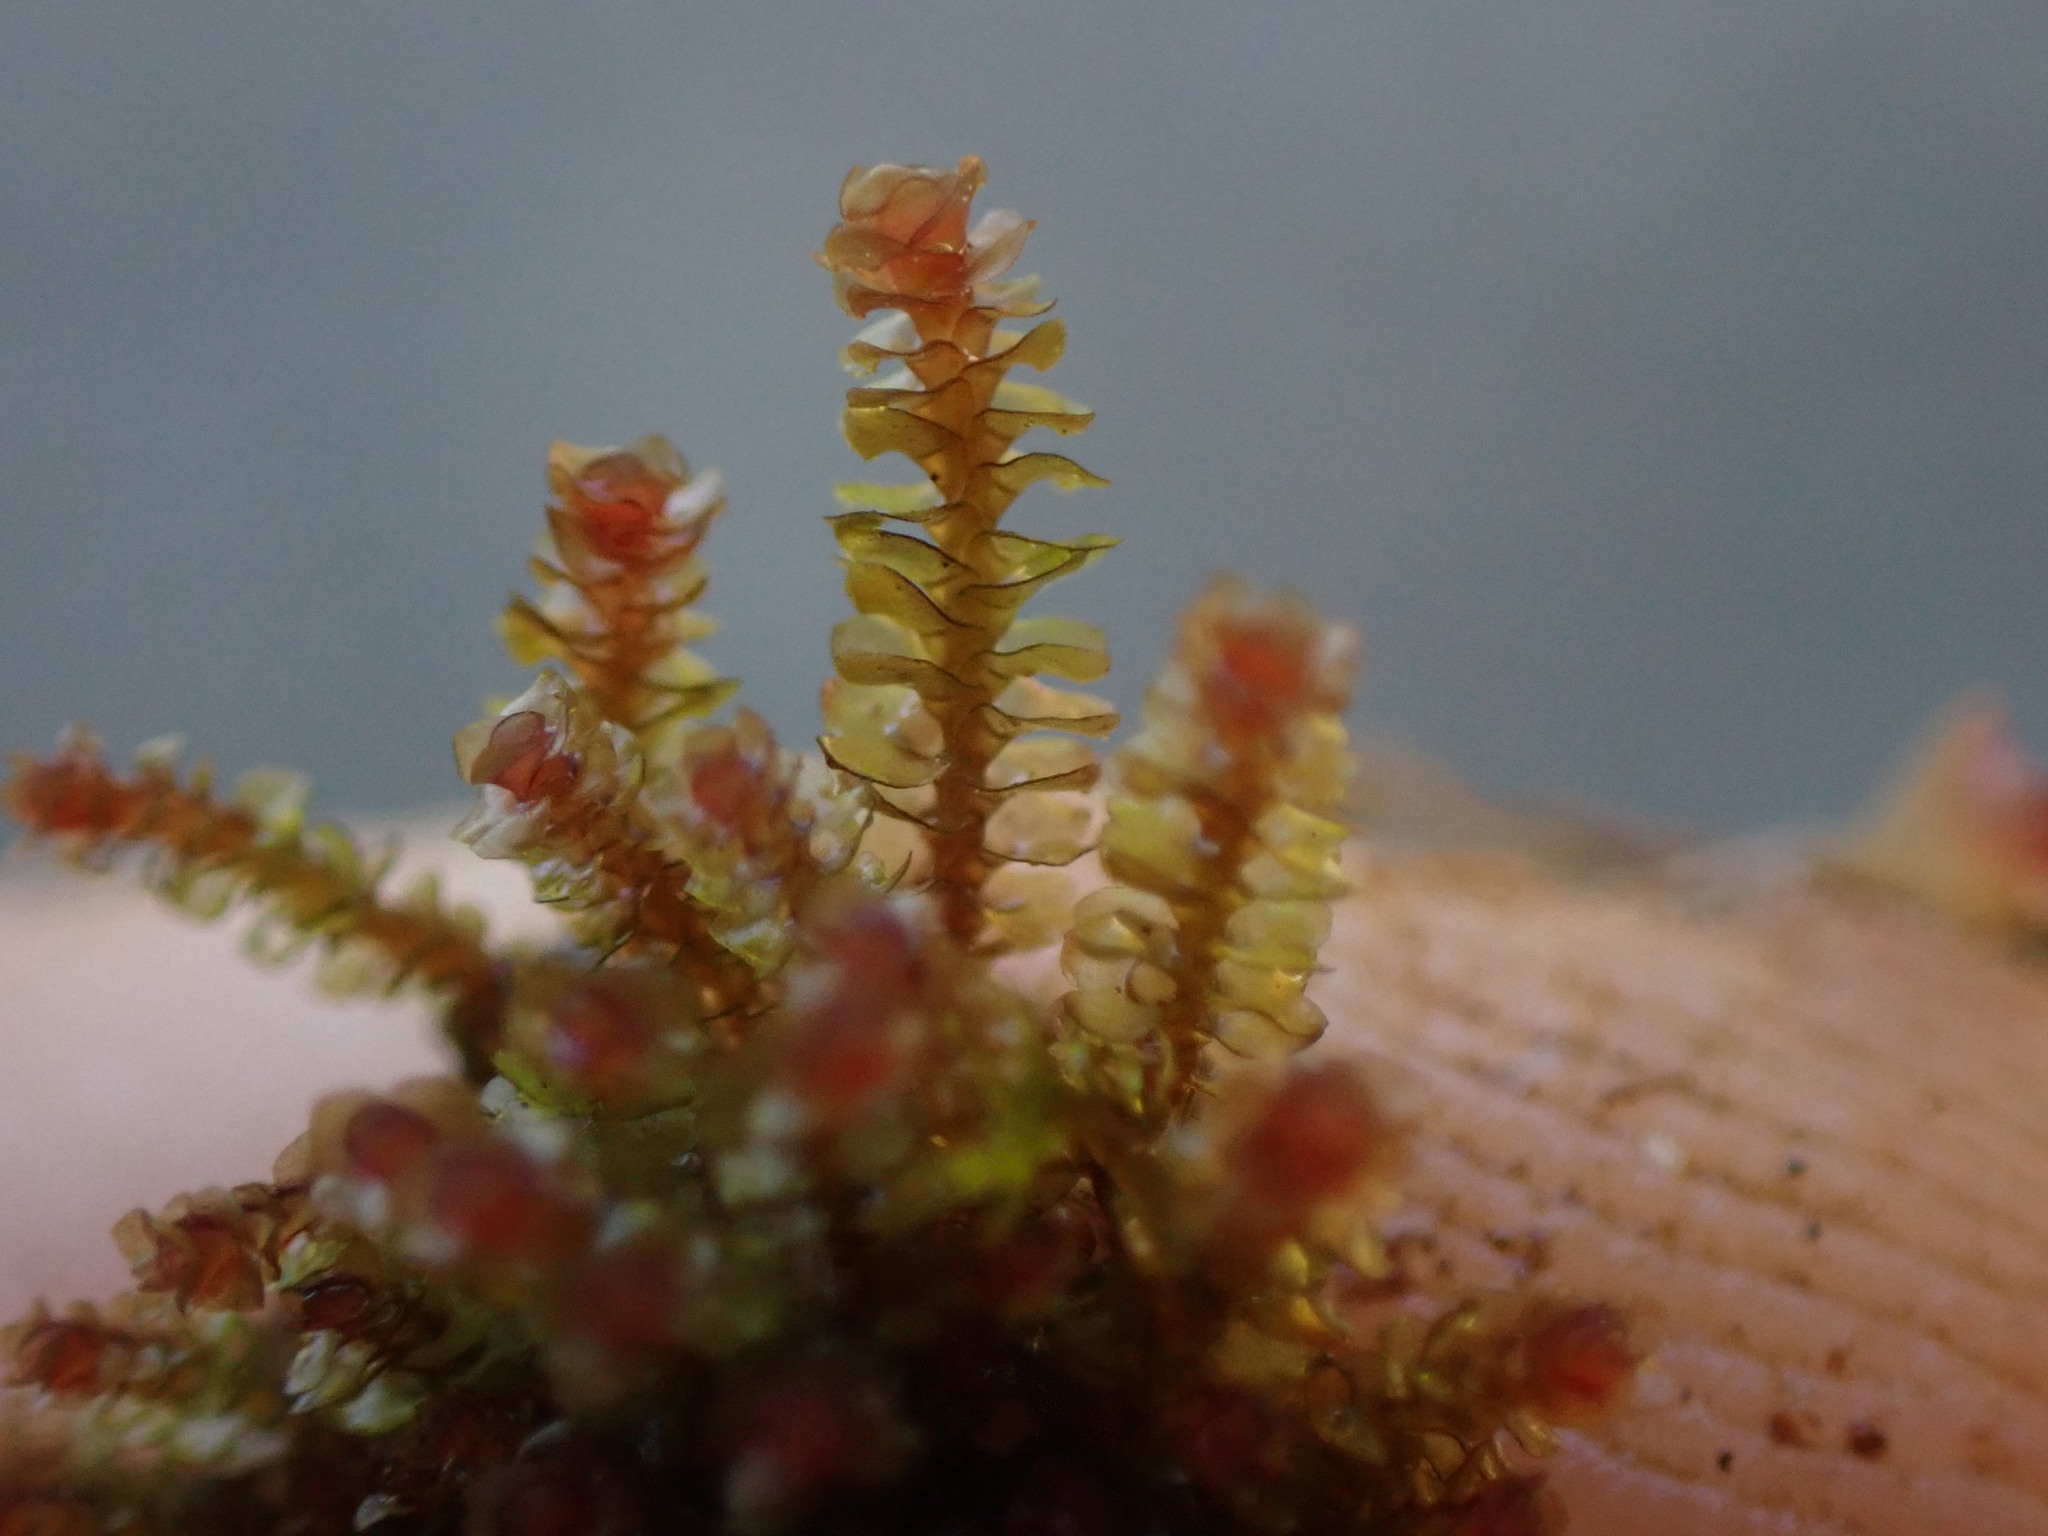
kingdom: Plantae
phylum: Marchantiophyta
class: Jungermanniopsida
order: Jungermanniales
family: Gymnomitriaceae
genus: Marsupella
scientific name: Marsupella emarginata
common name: Notched rustwort
